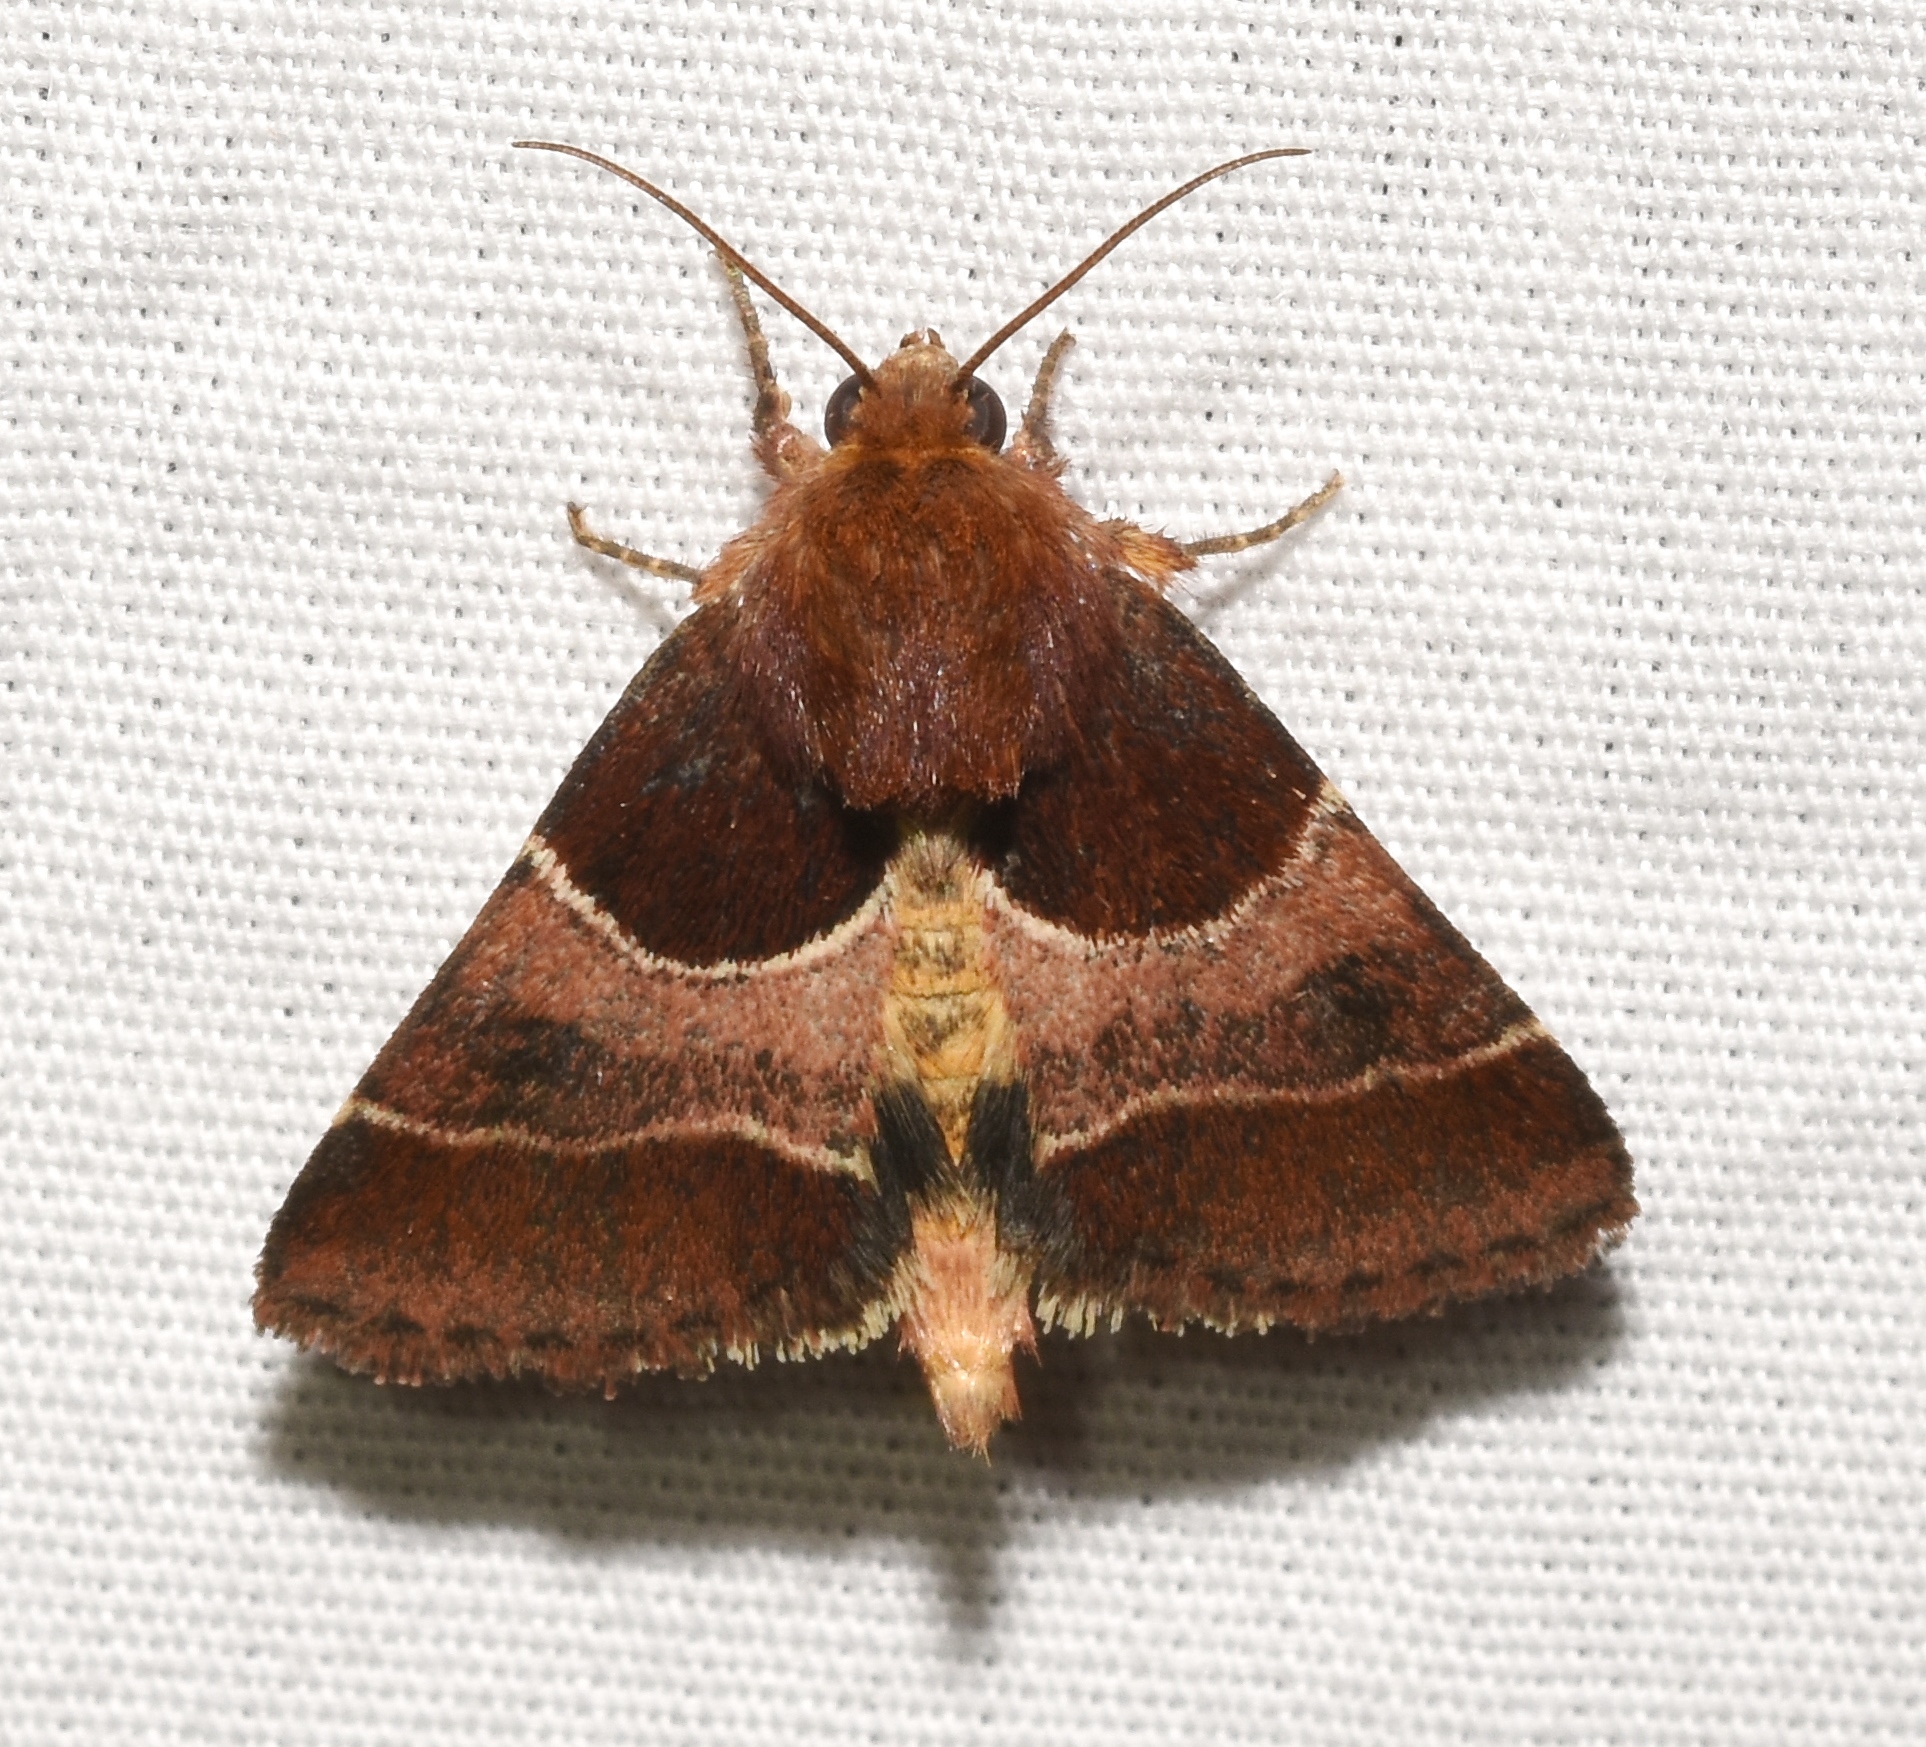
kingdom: Animalia
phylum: Arthropoda
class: Insecta
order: Lepidoptera
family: Noctuidae
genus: Schinia
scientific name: Schinia arcigera
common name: Arcigera flower moth
